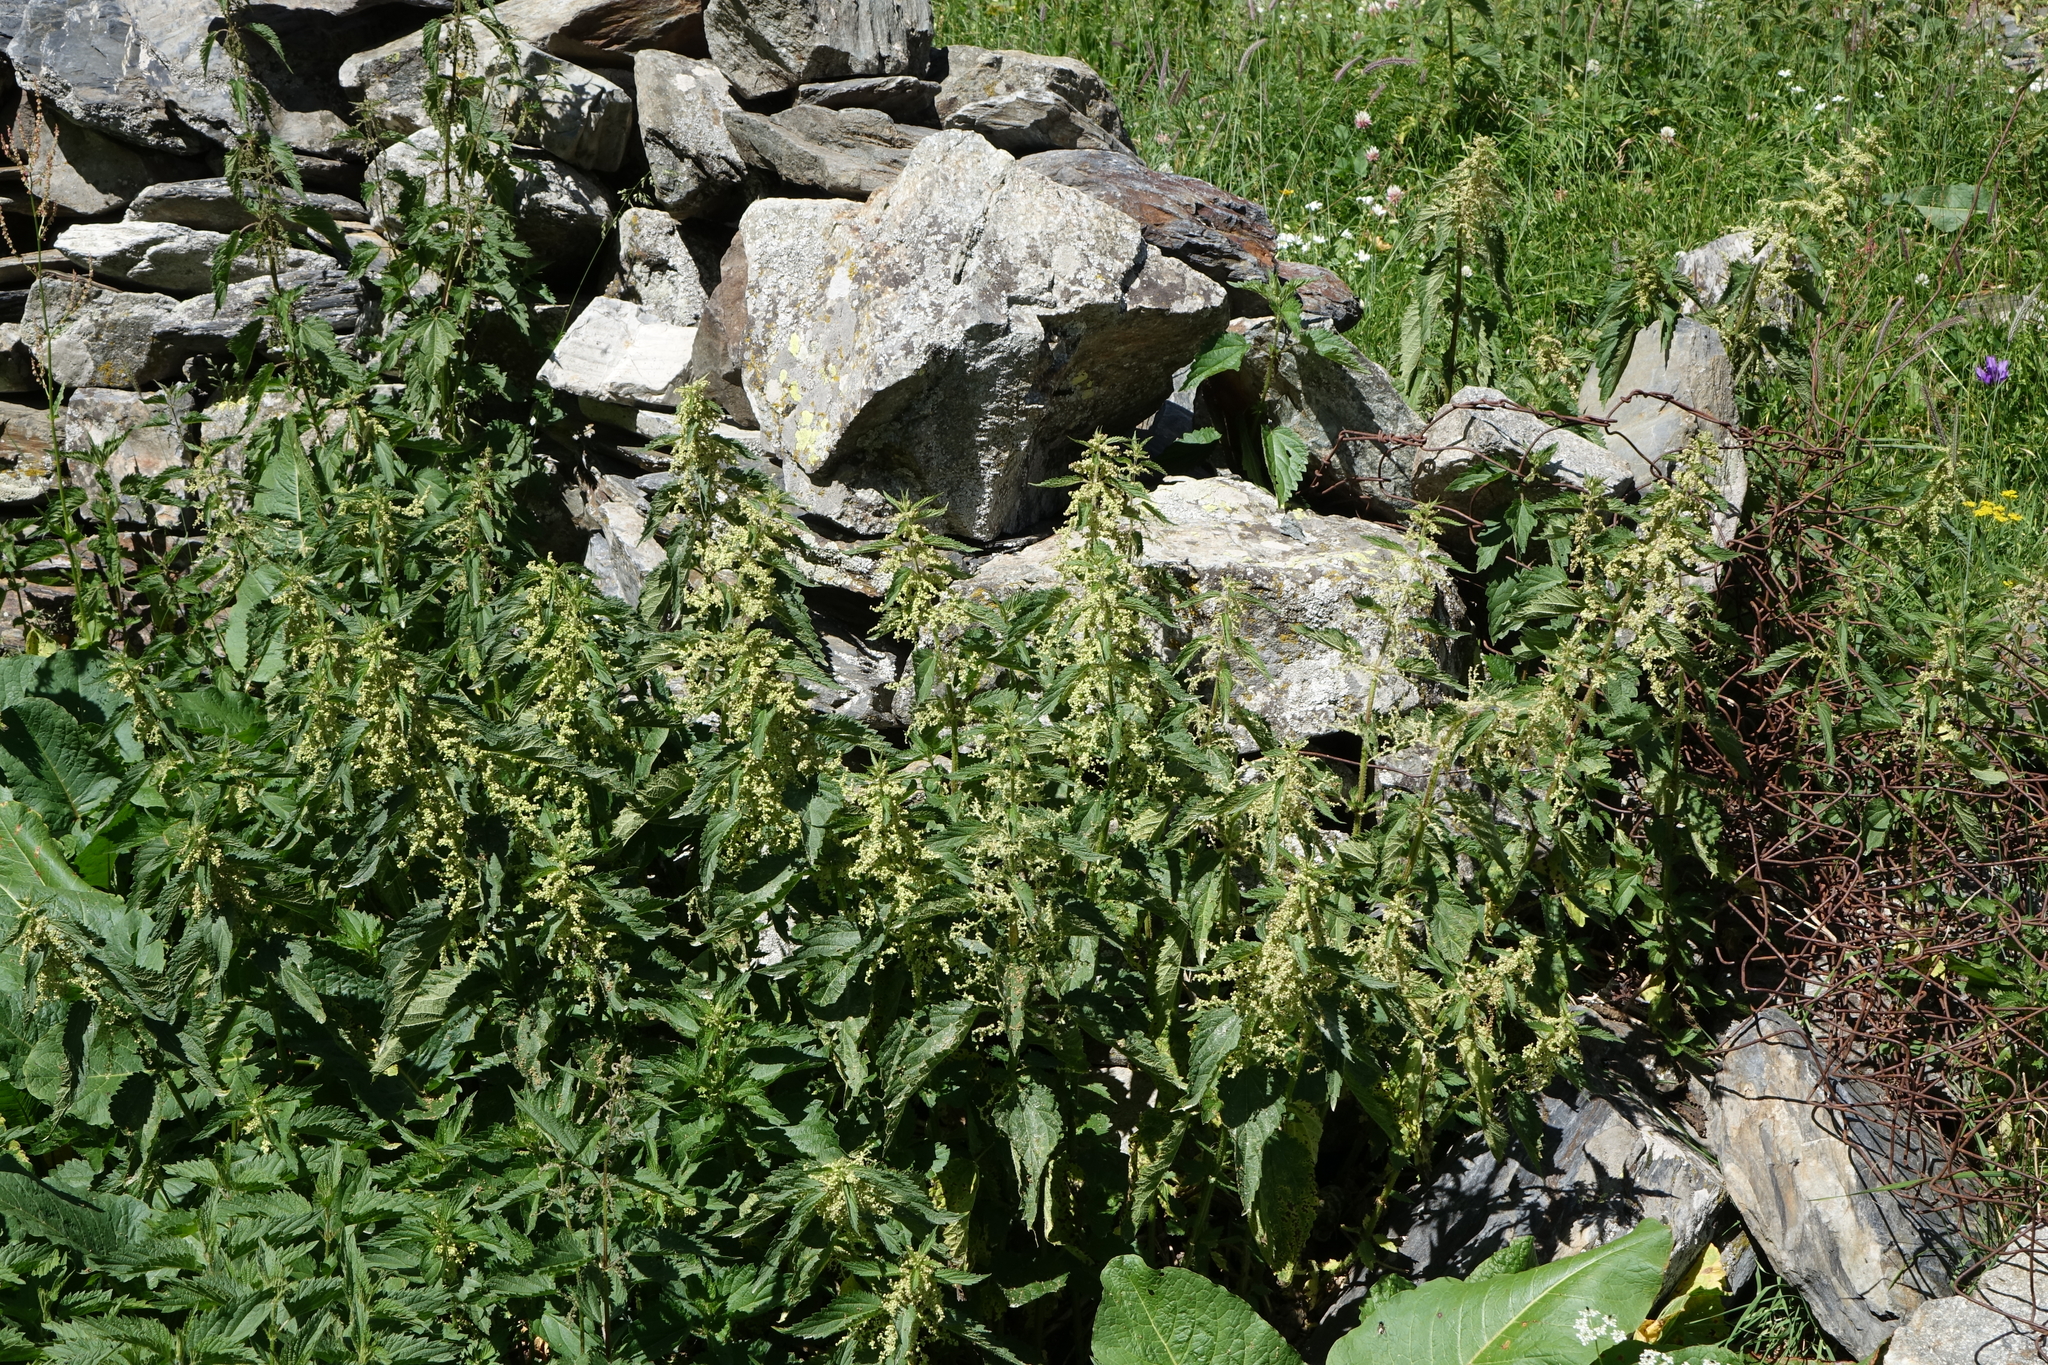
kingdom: Plantae
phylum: Tracheophyta
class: Magnoliopsida
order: Rosales
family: Urticaceae
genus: Urtica
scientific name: Urtica dioica
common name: Common nettle
